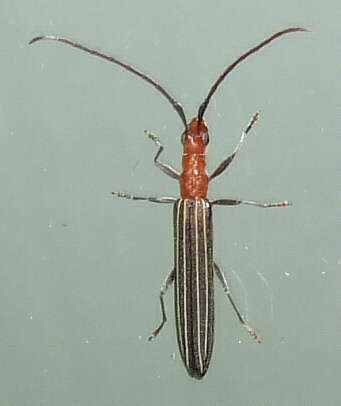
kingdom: Animalia
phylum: Arthropoda
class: Insecta
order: Coleoptera
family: Cerambycidae
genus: Syllitus
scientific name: Syllitus rectus
